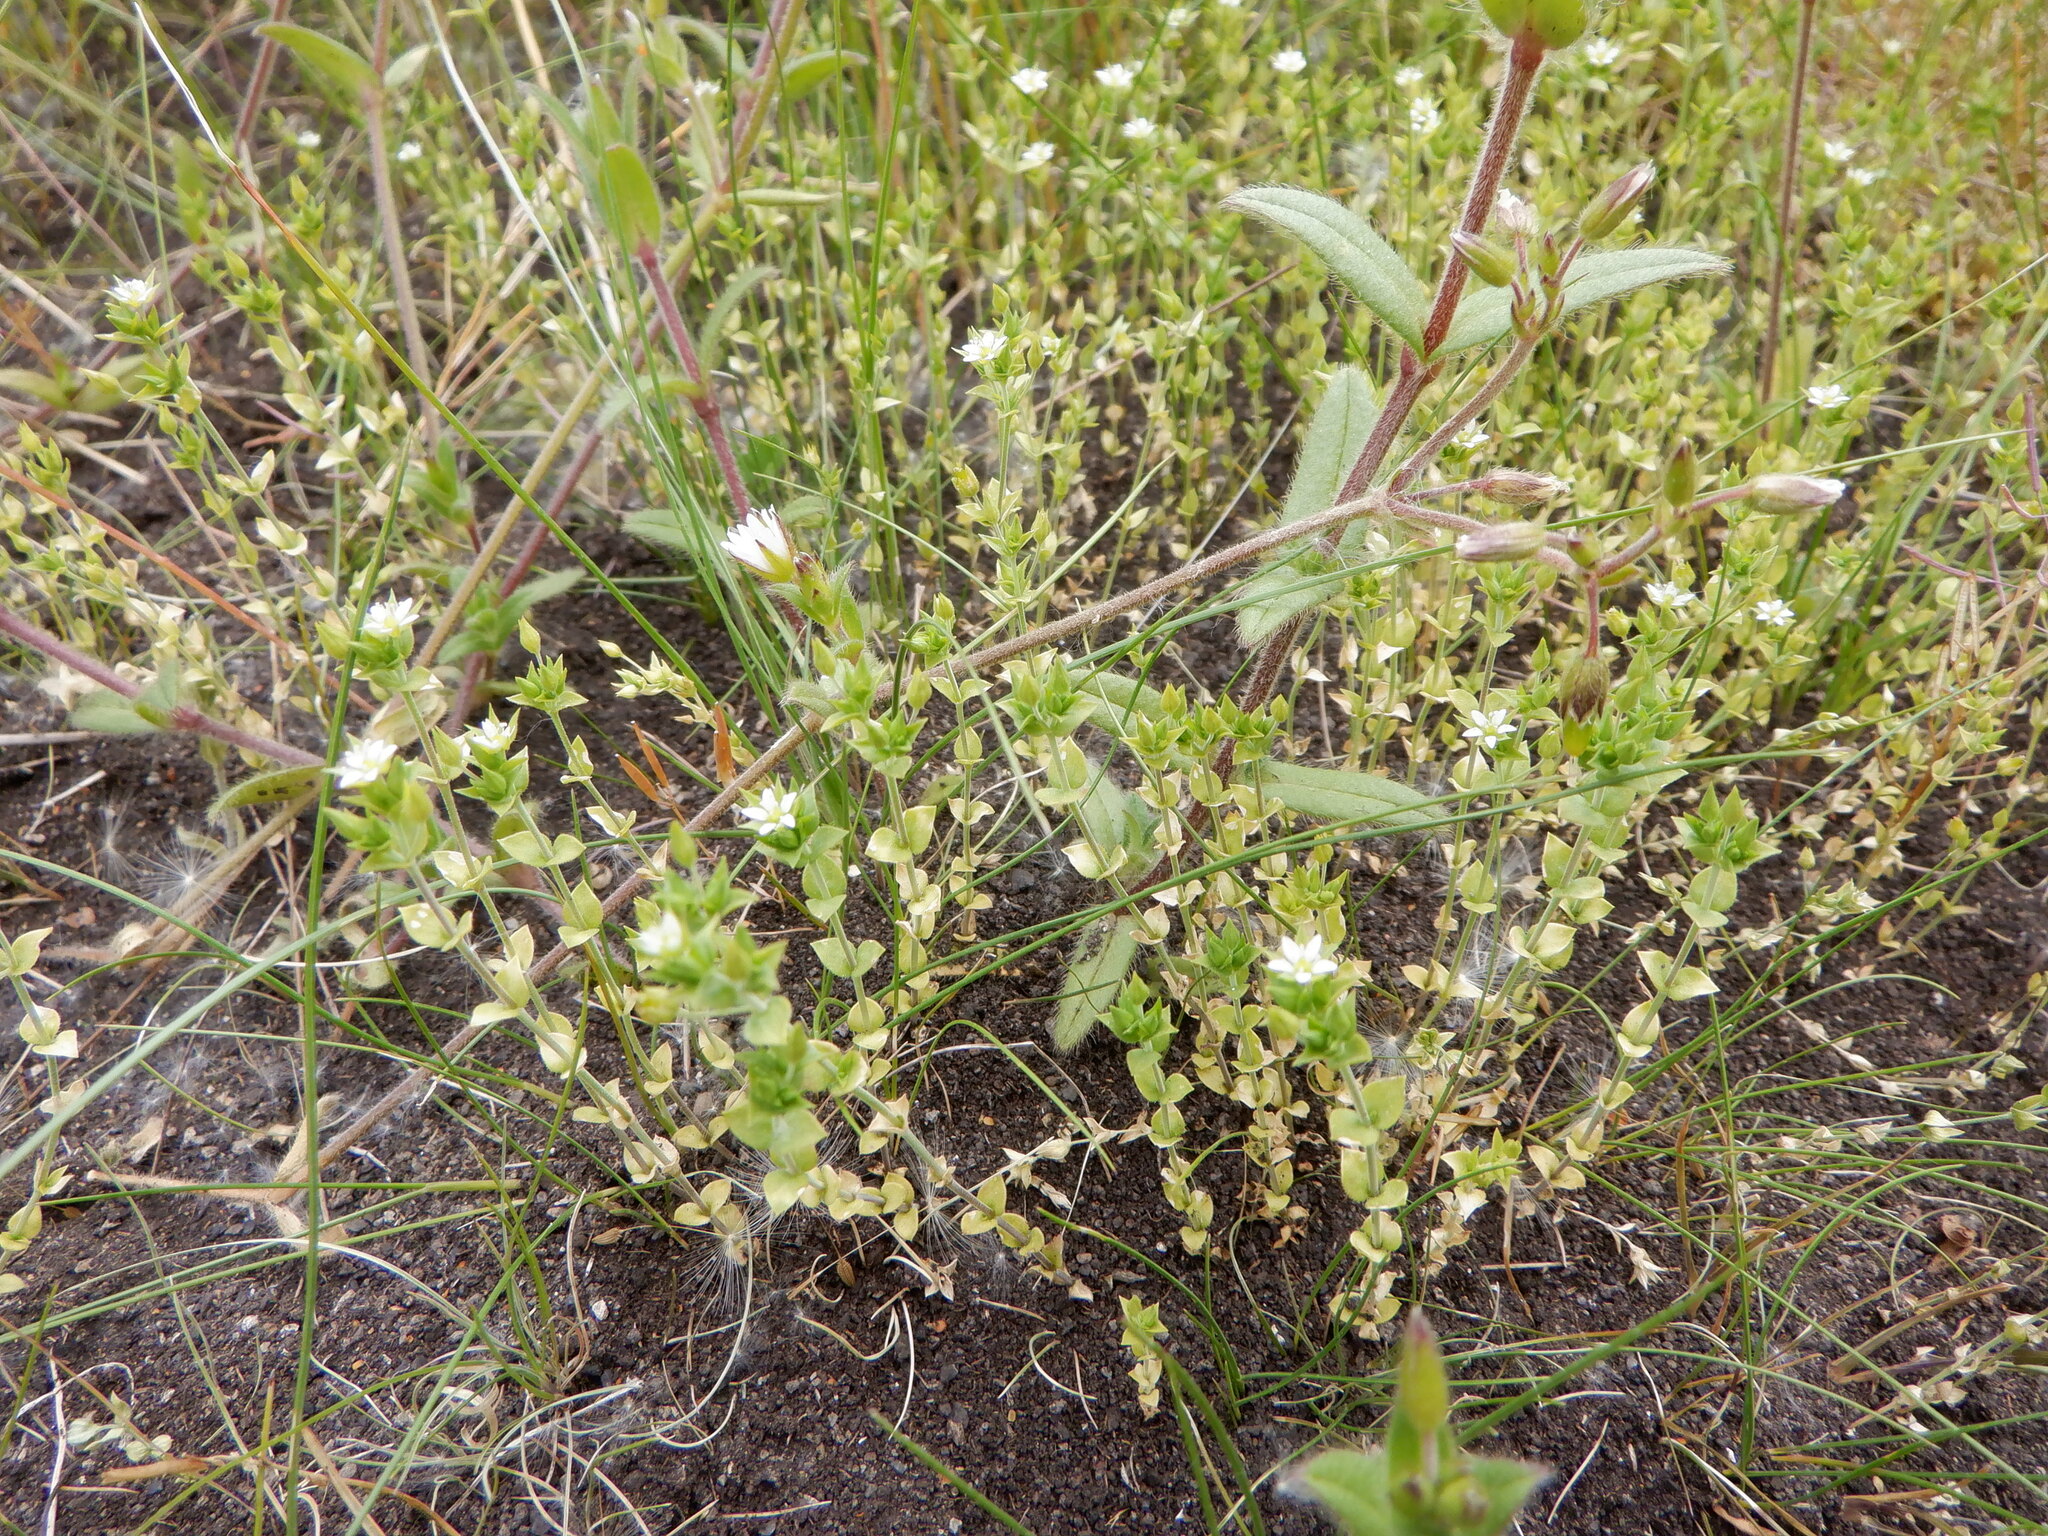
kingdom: Plantae
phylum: Tracheophyta
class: Magnoliopsida
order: Caryophyllales
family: Caryophyllaceae
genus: Arenaria
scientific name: Arenaria serpyllifolia
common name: Thyme-leaved sandwort
